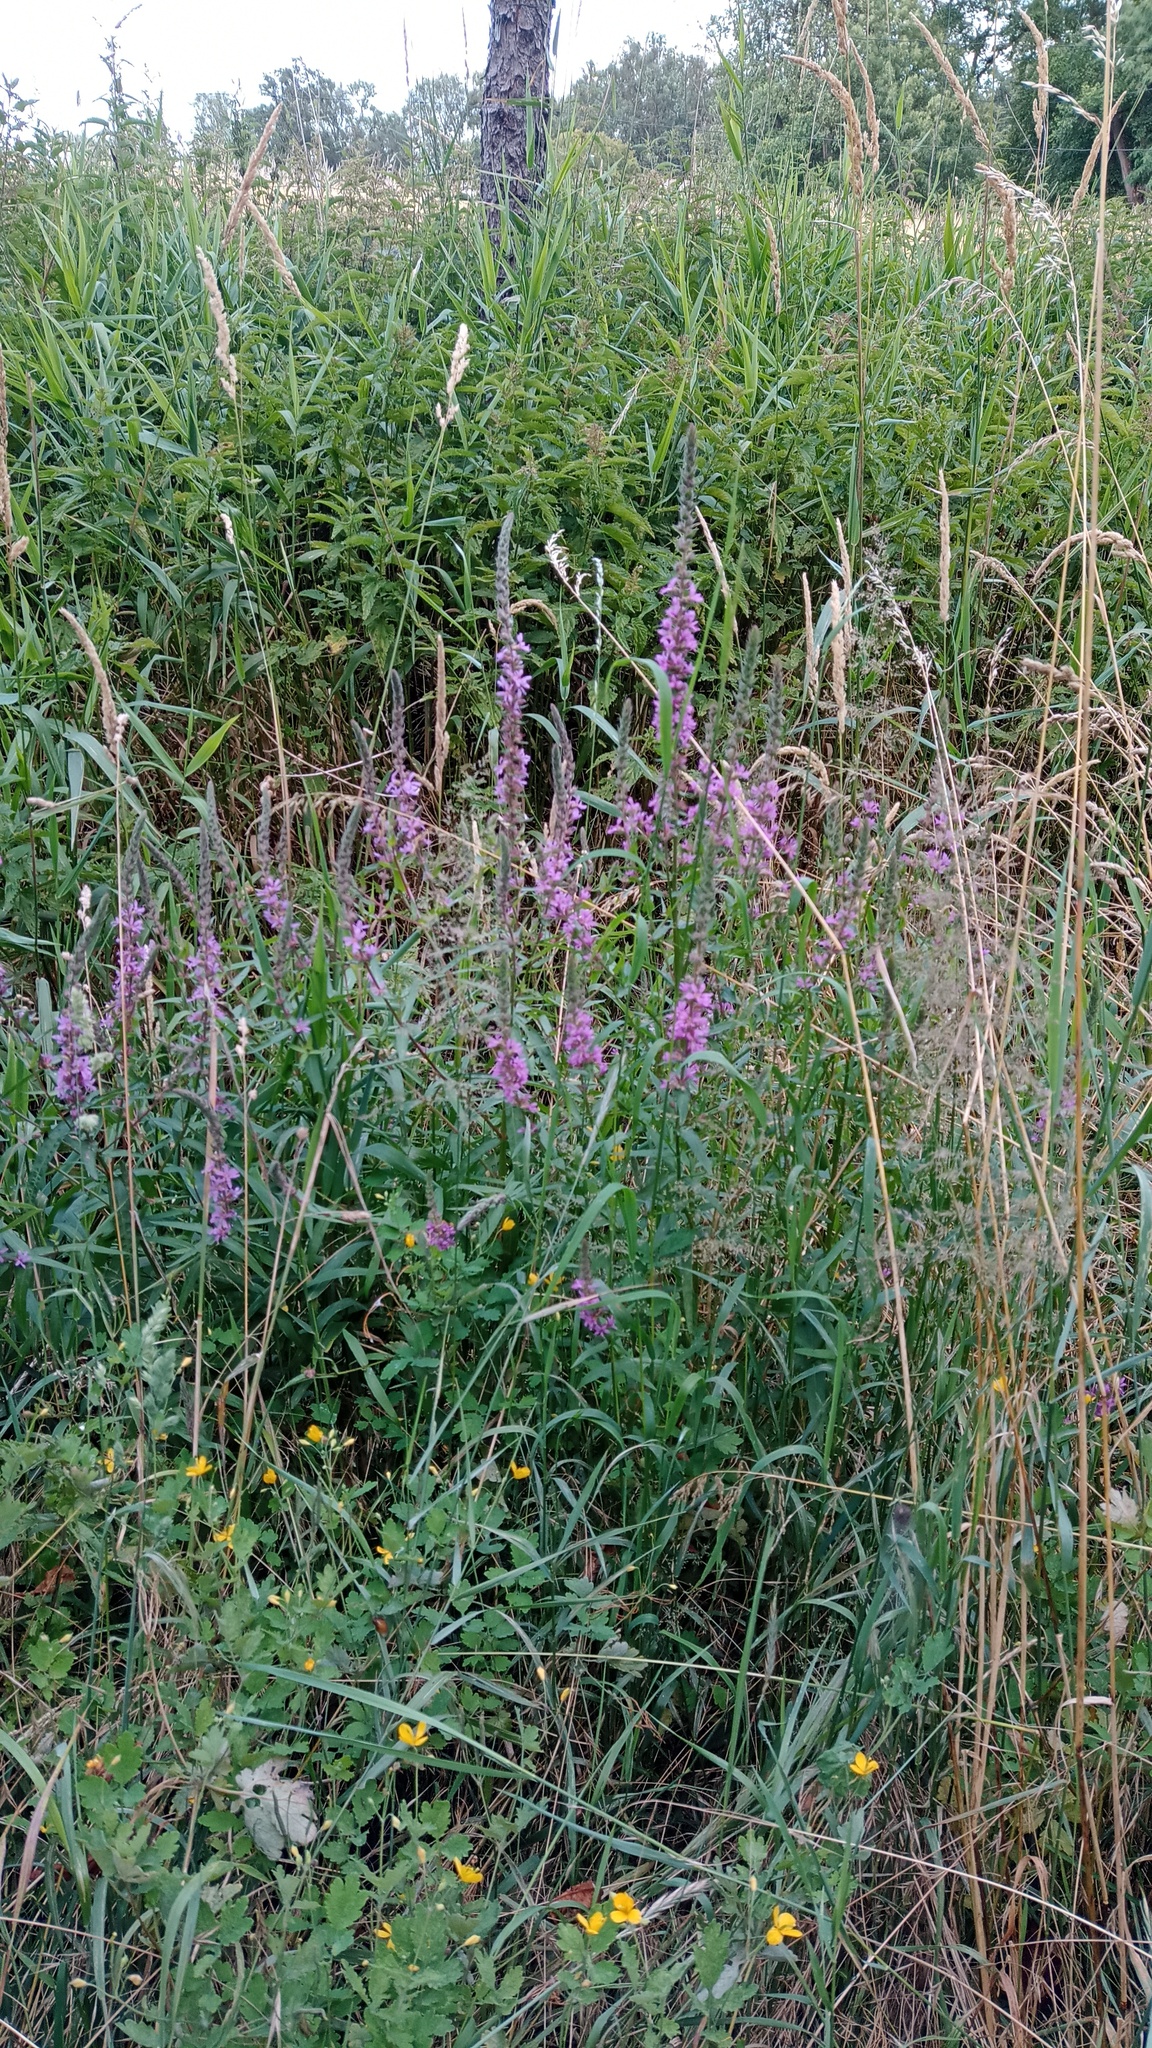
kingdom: Plantae
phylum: Tracheophyta
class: Magnoliopsida
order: Myrtales
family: Lythraceae
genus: Lythrum
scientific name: Lythrum salicaria
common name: Purple loosestrife
